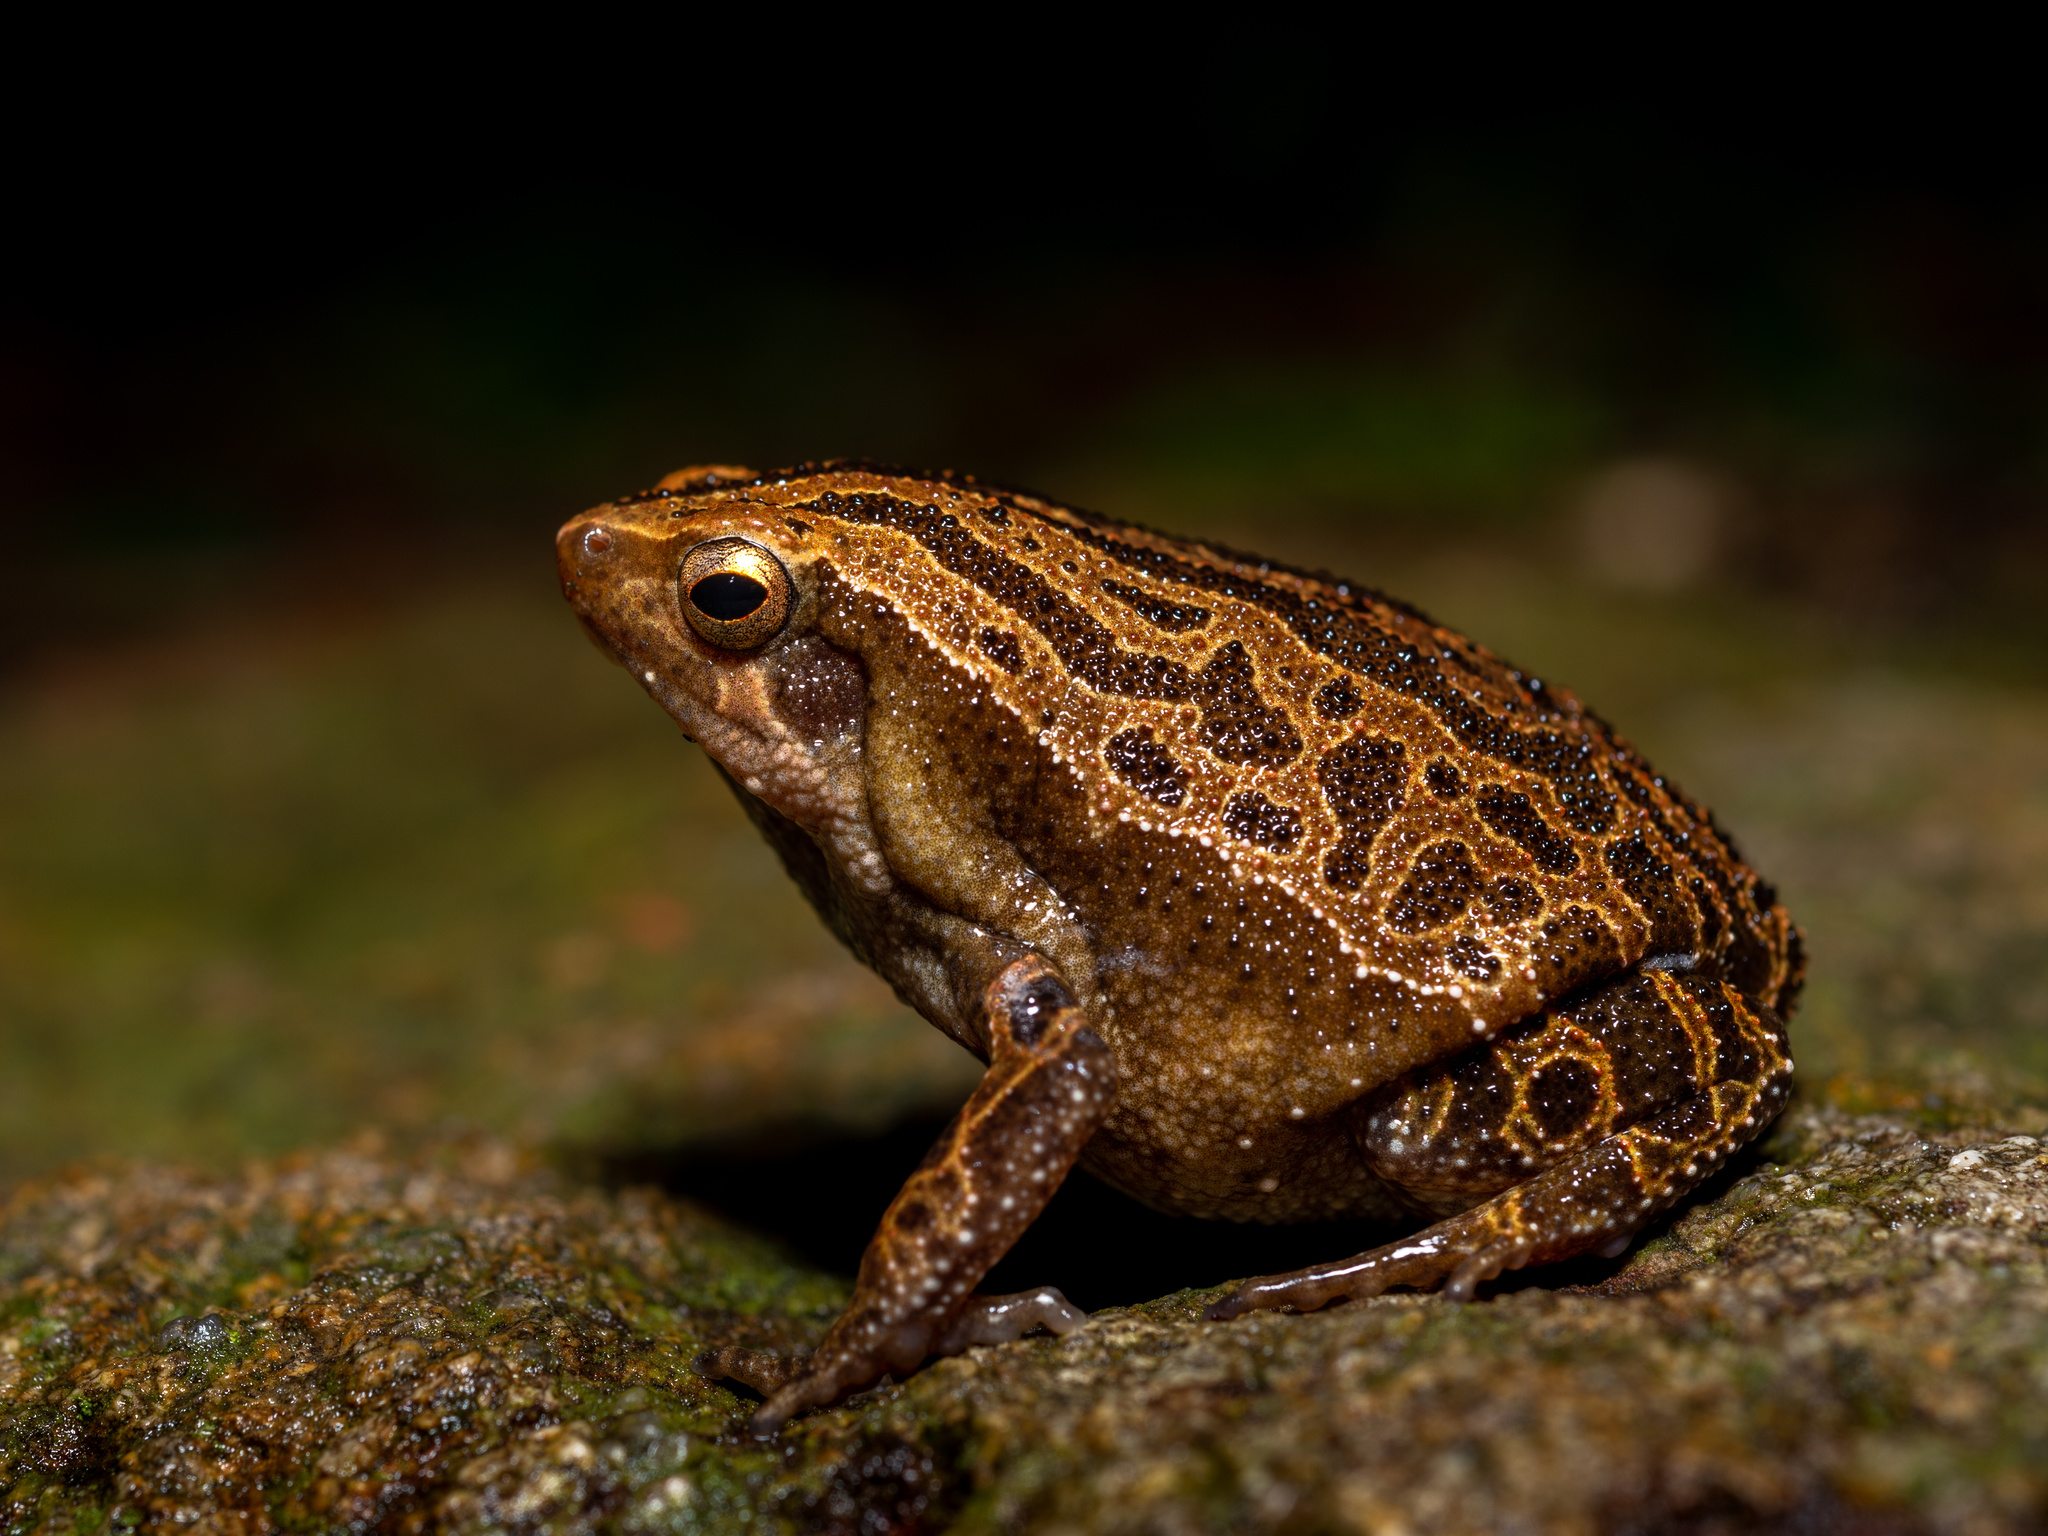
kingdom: Animalia
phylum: Chordata
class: Amphibia
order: Anura
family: Microhylidae
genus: Kalophrynus
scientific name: Kalophrynus interlineatus
